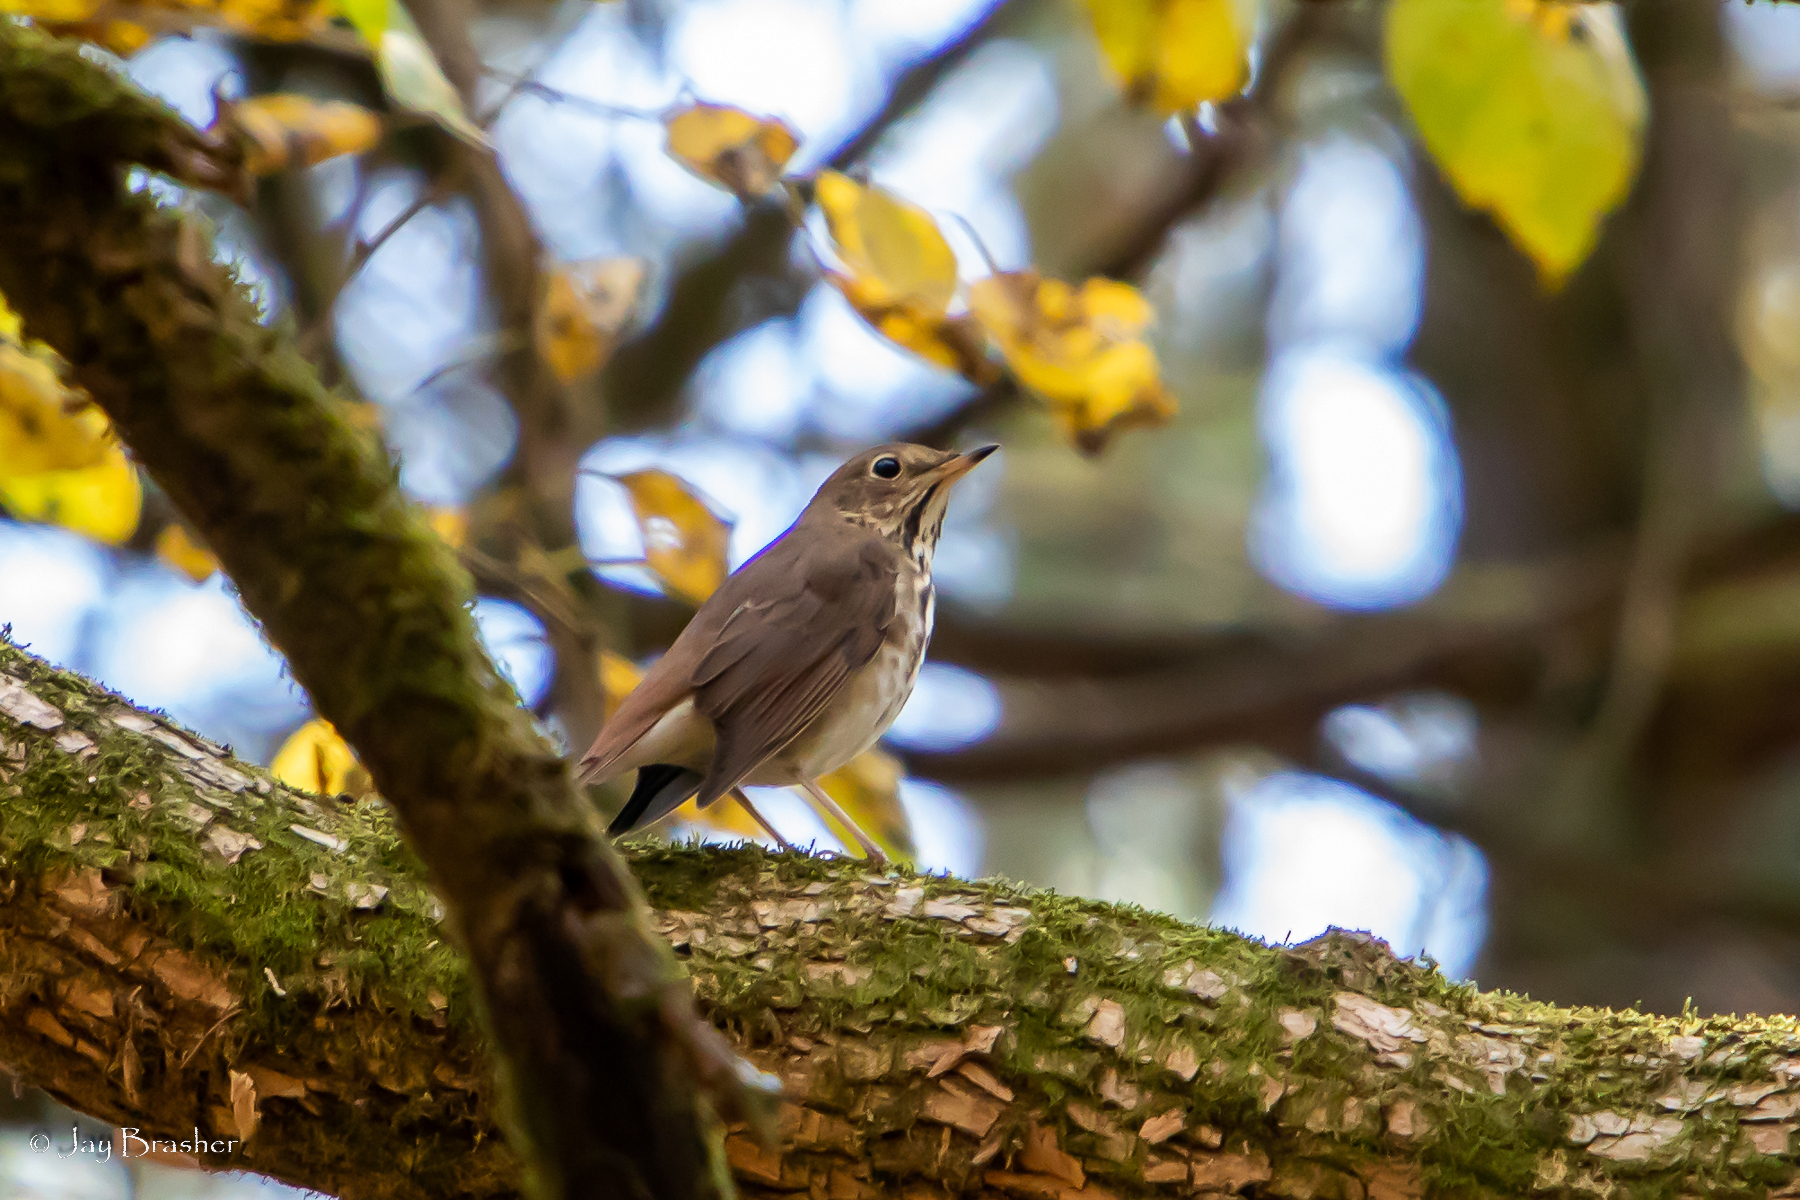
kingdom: Animalia
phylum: Chordata
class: Aves
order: Passeriformes
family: Turdidae
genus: Catharus
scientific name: Catharus guttatus
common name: Hermit thrush
